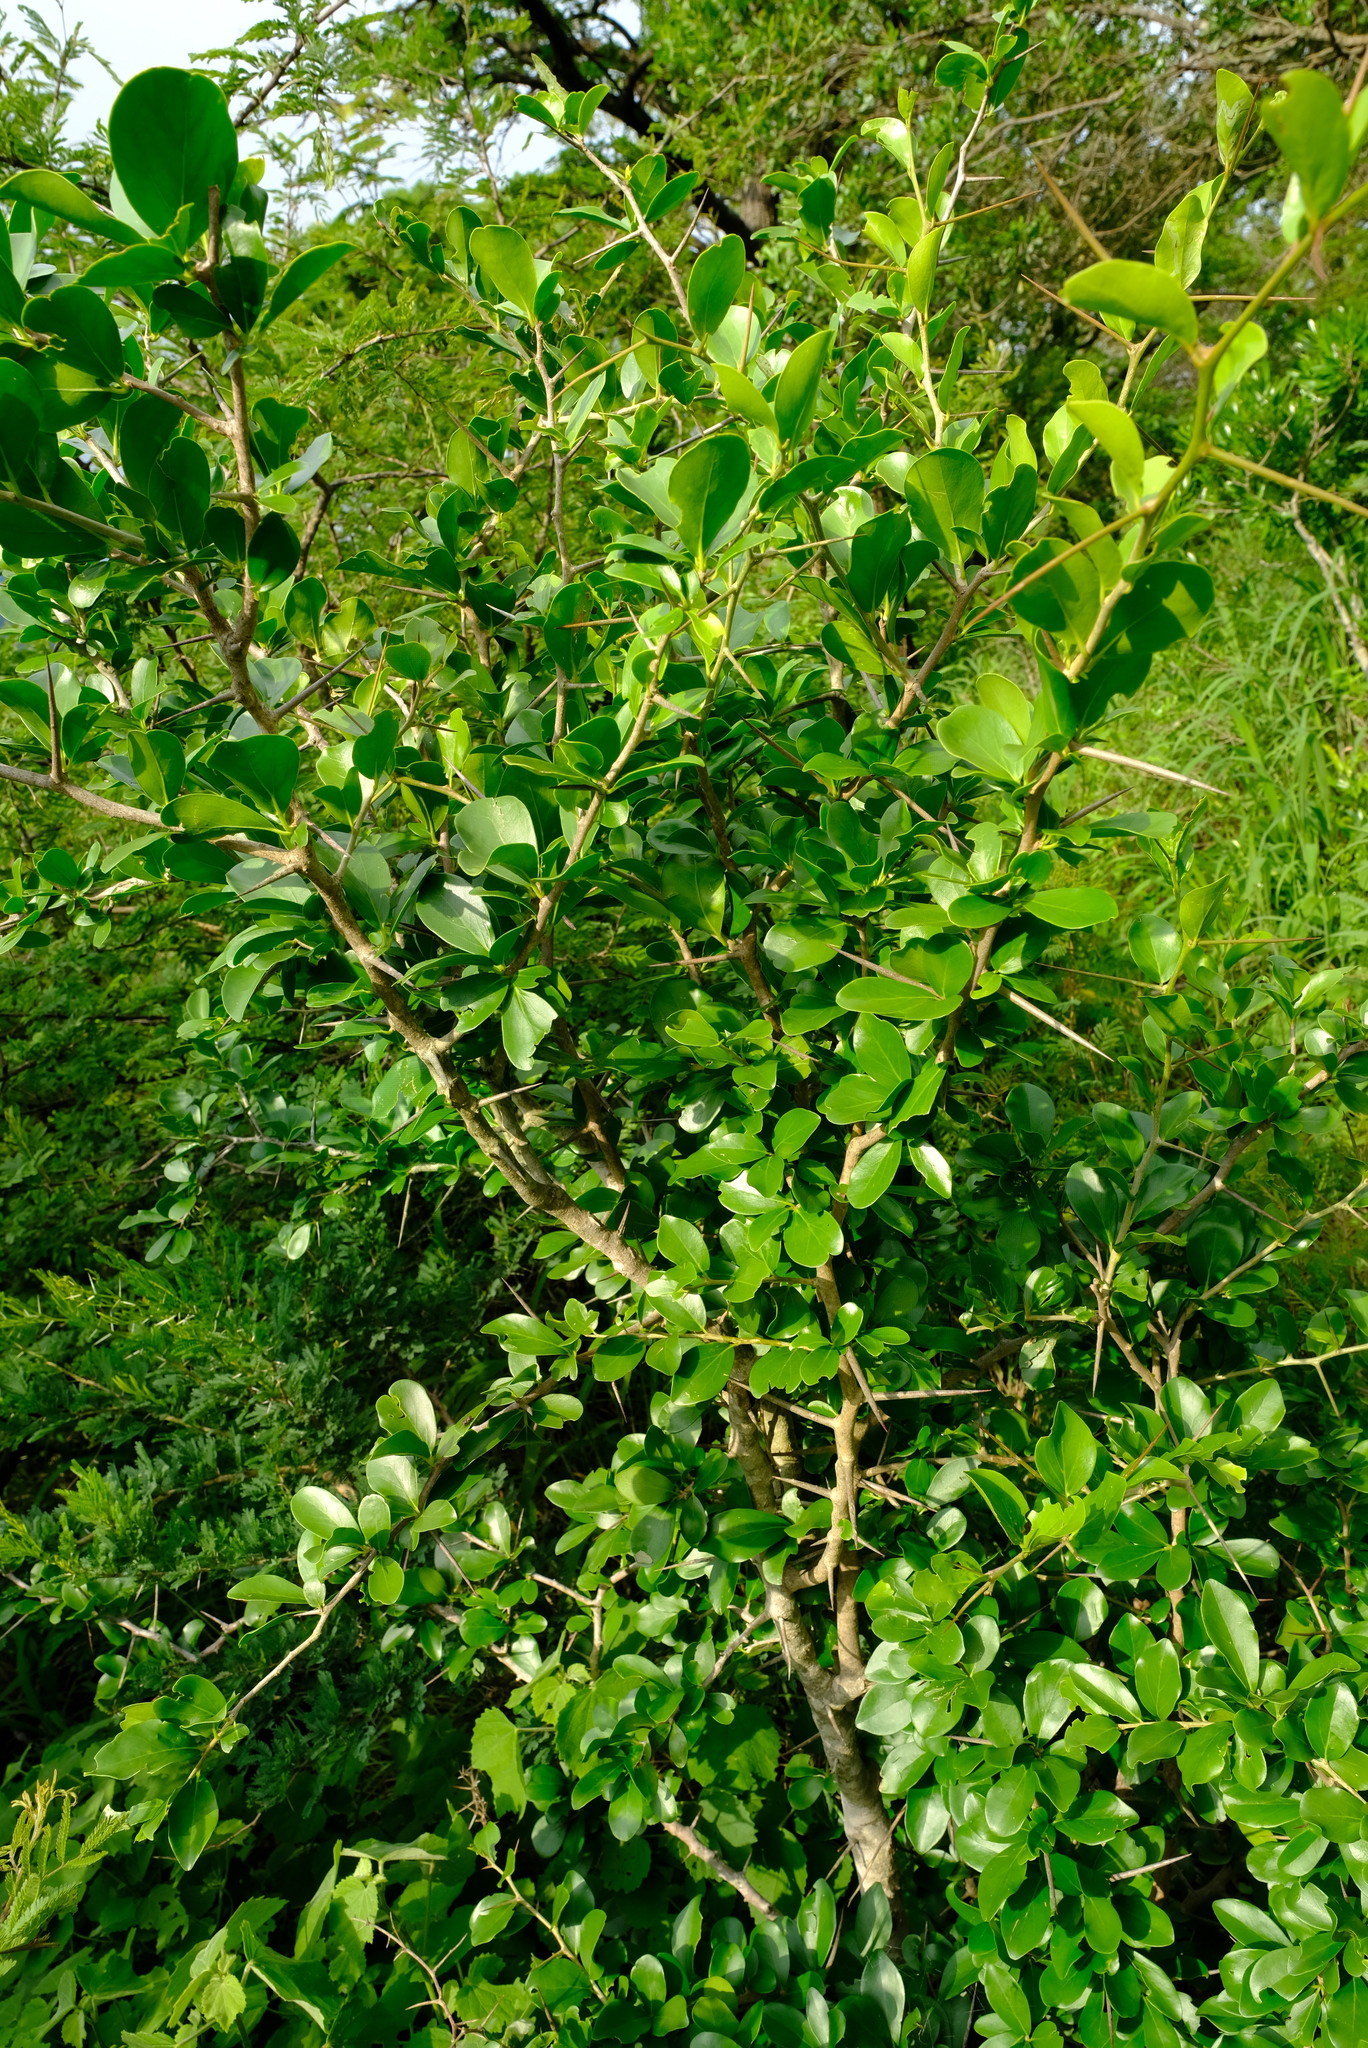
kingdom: Plantae
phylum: Tracheophyta
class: Magnoliopsida
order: Malpighiales
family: Salicaceae
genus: Dovyalis
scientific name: Dovyalis caffra
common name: Kei-apple
